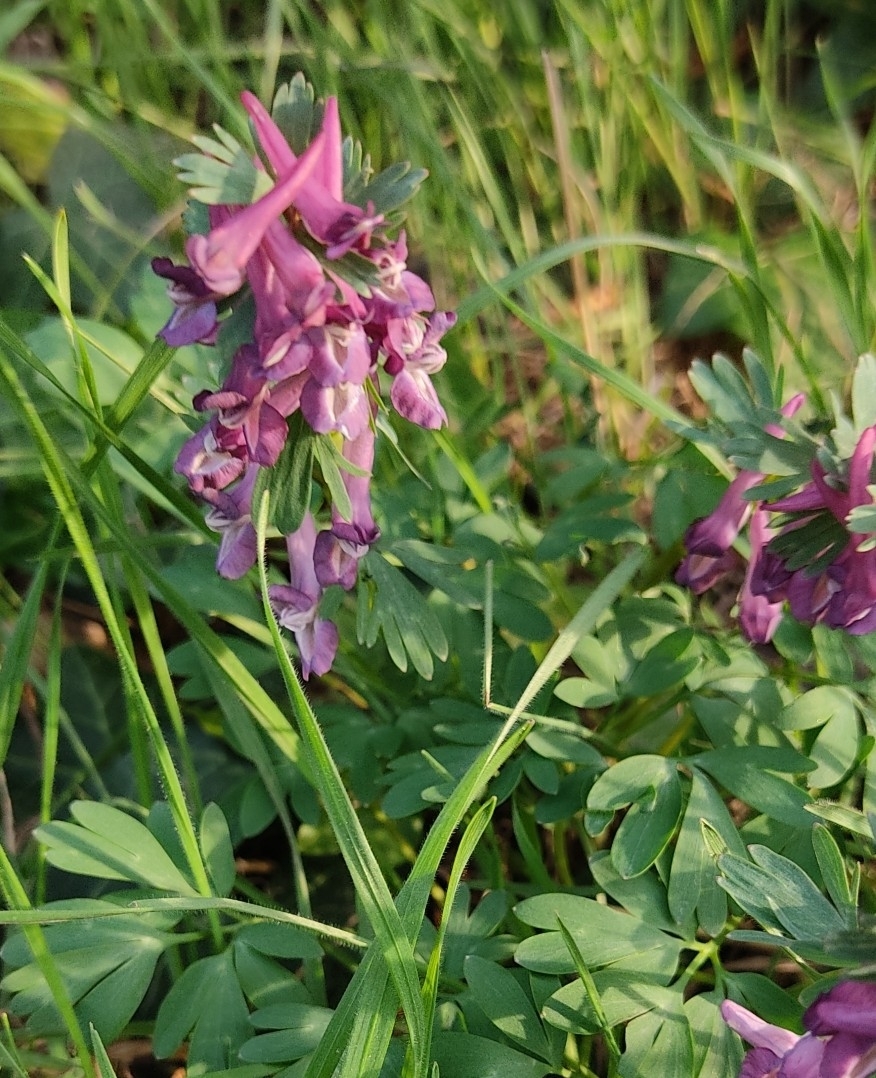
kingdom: Plantae
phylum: Tracheophyta
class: Magnoliopsida
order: Ranunculales
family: Papaveraceae
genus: Corydalis
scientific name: Corydalis solida
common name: Bird-in-a-bush
